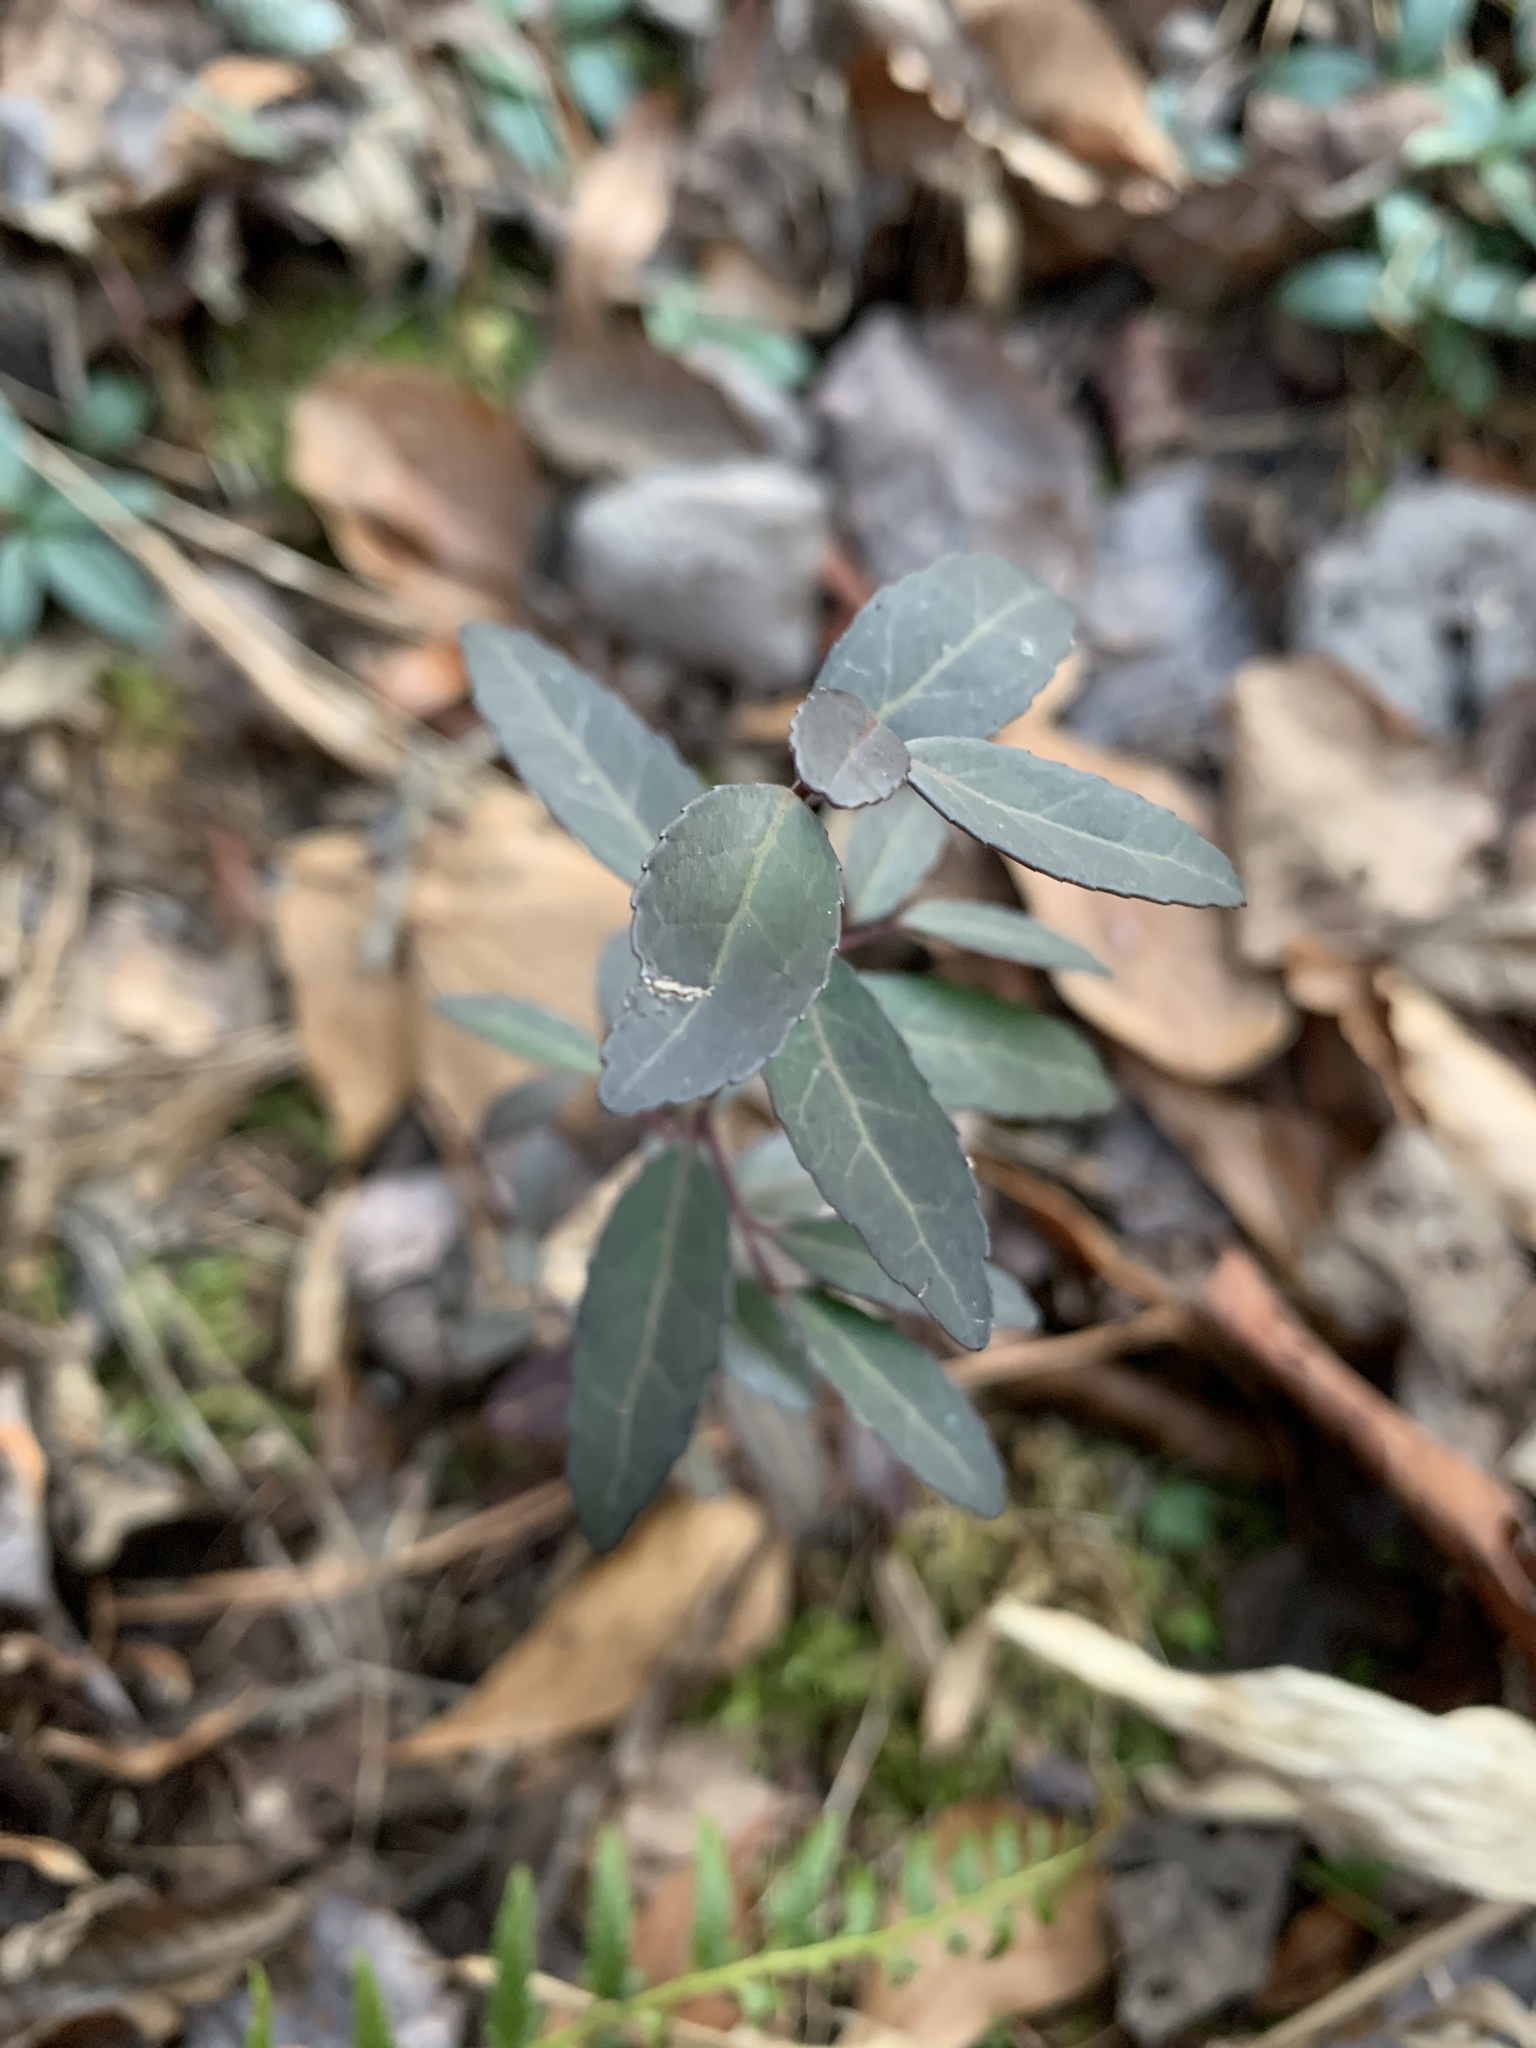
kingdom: Plantae
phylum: Tracheophyta
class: Magnoliopsida
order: Aquifoliales
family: Aquifoliaceae
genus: Ilex
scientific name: Ilex vomitoria
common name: Yaupon holly
